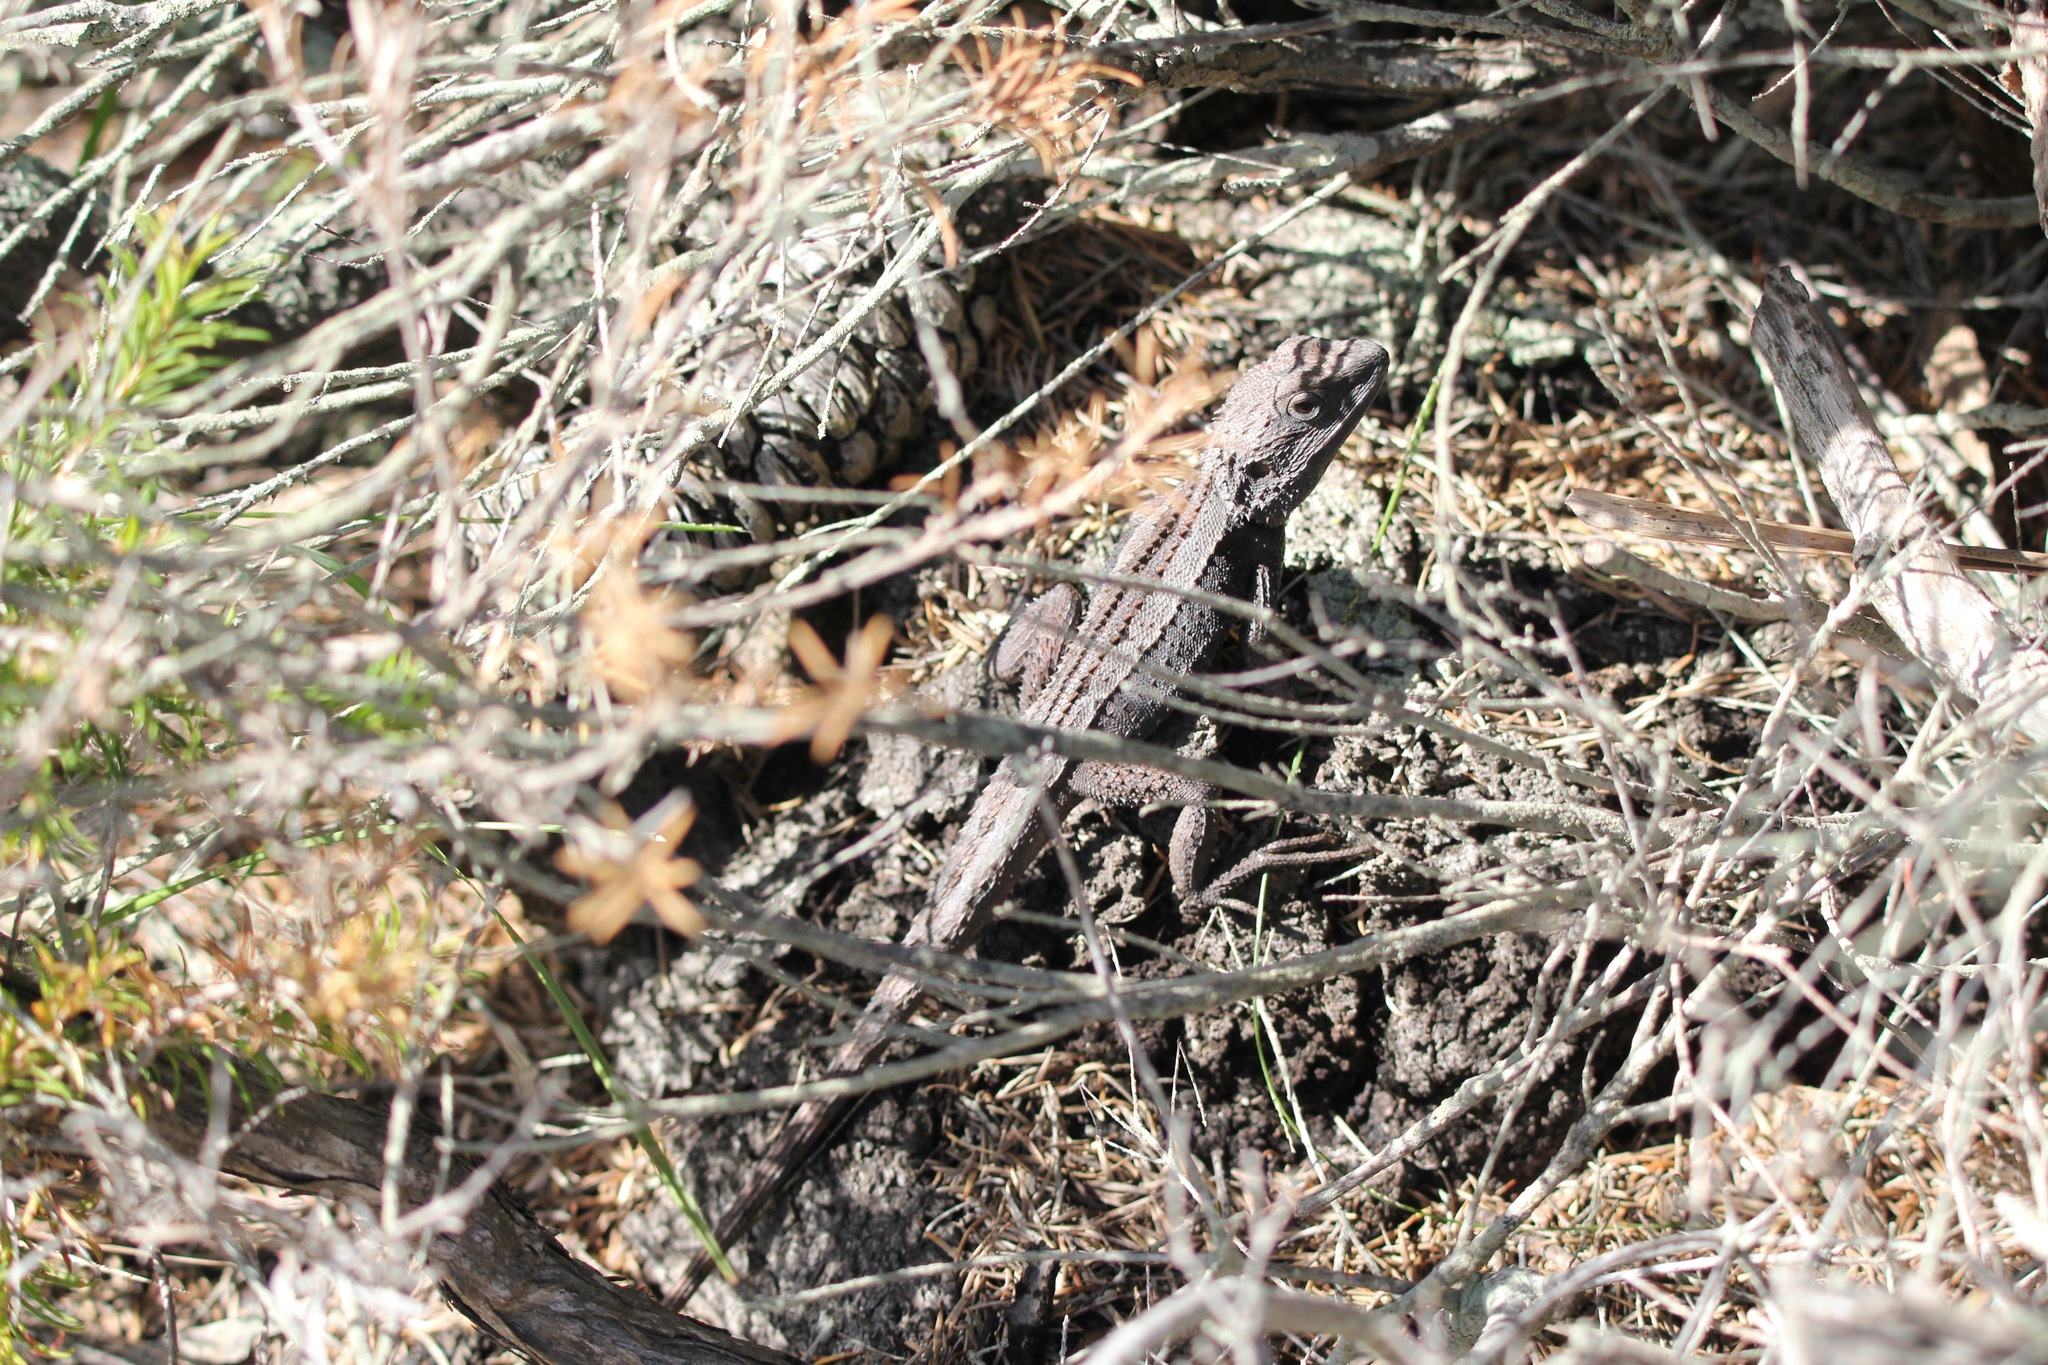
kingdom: Animalia
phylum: Chordata
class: Squamata
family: Agamidae
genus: Amphibolurus
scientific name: Amphibolurus muricatus
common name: Jacky lizard
